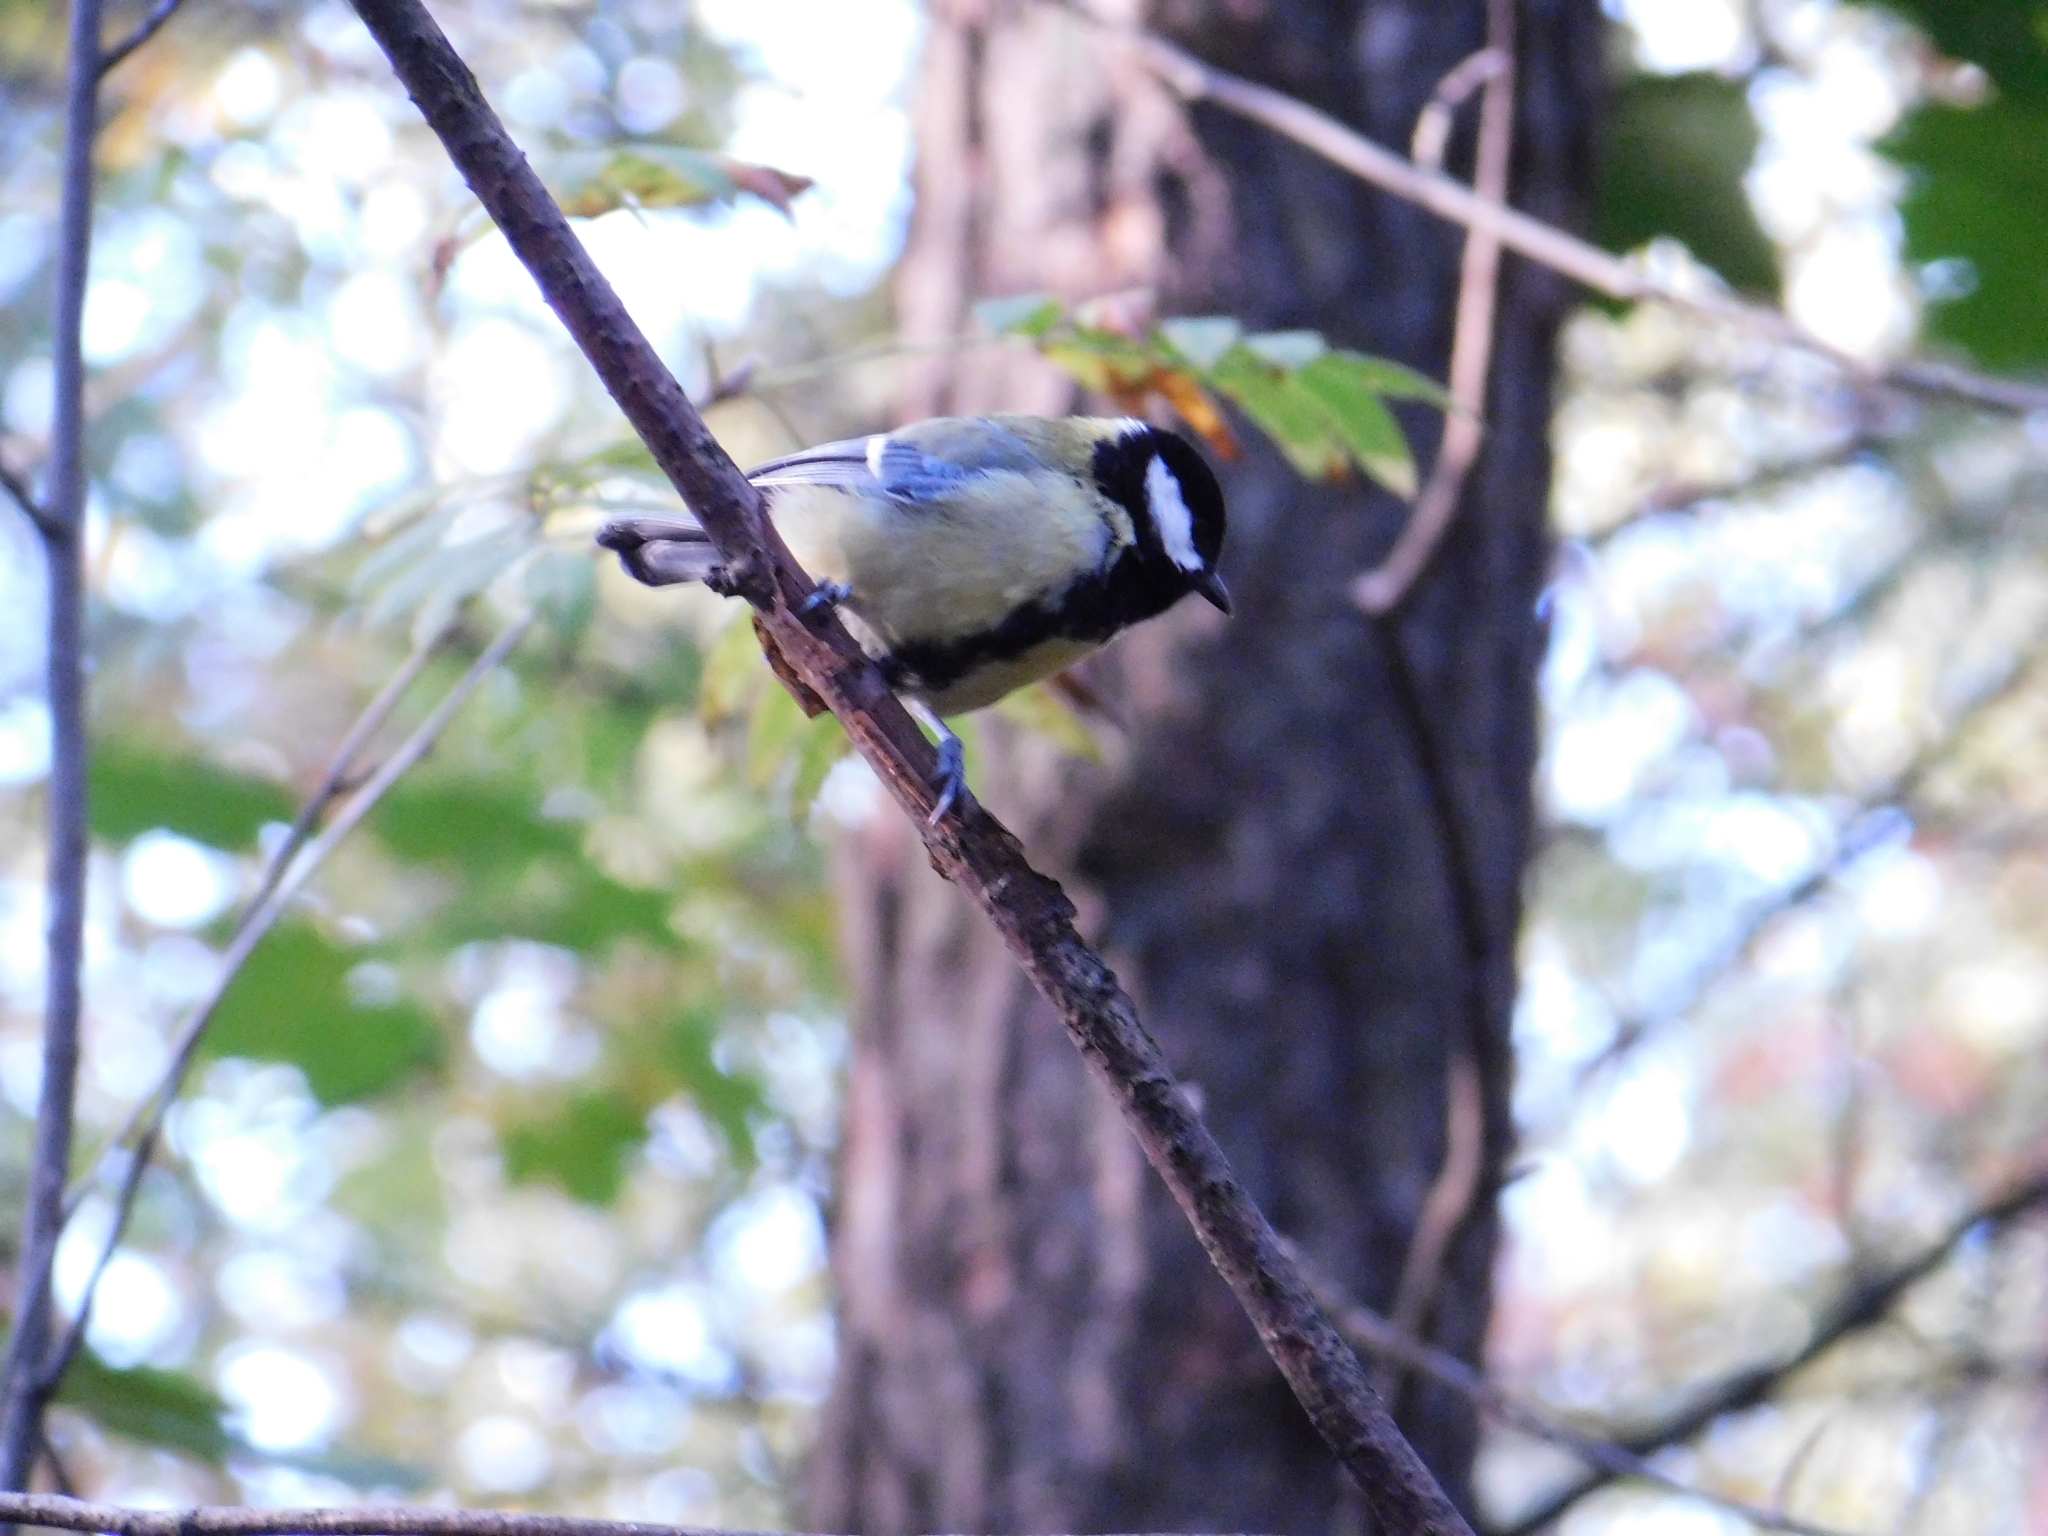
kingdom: Animalia
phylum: Chordata
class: Aves
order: Passeriformes
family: Paridae
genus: Parus
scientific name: Parus major
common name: Great tit
